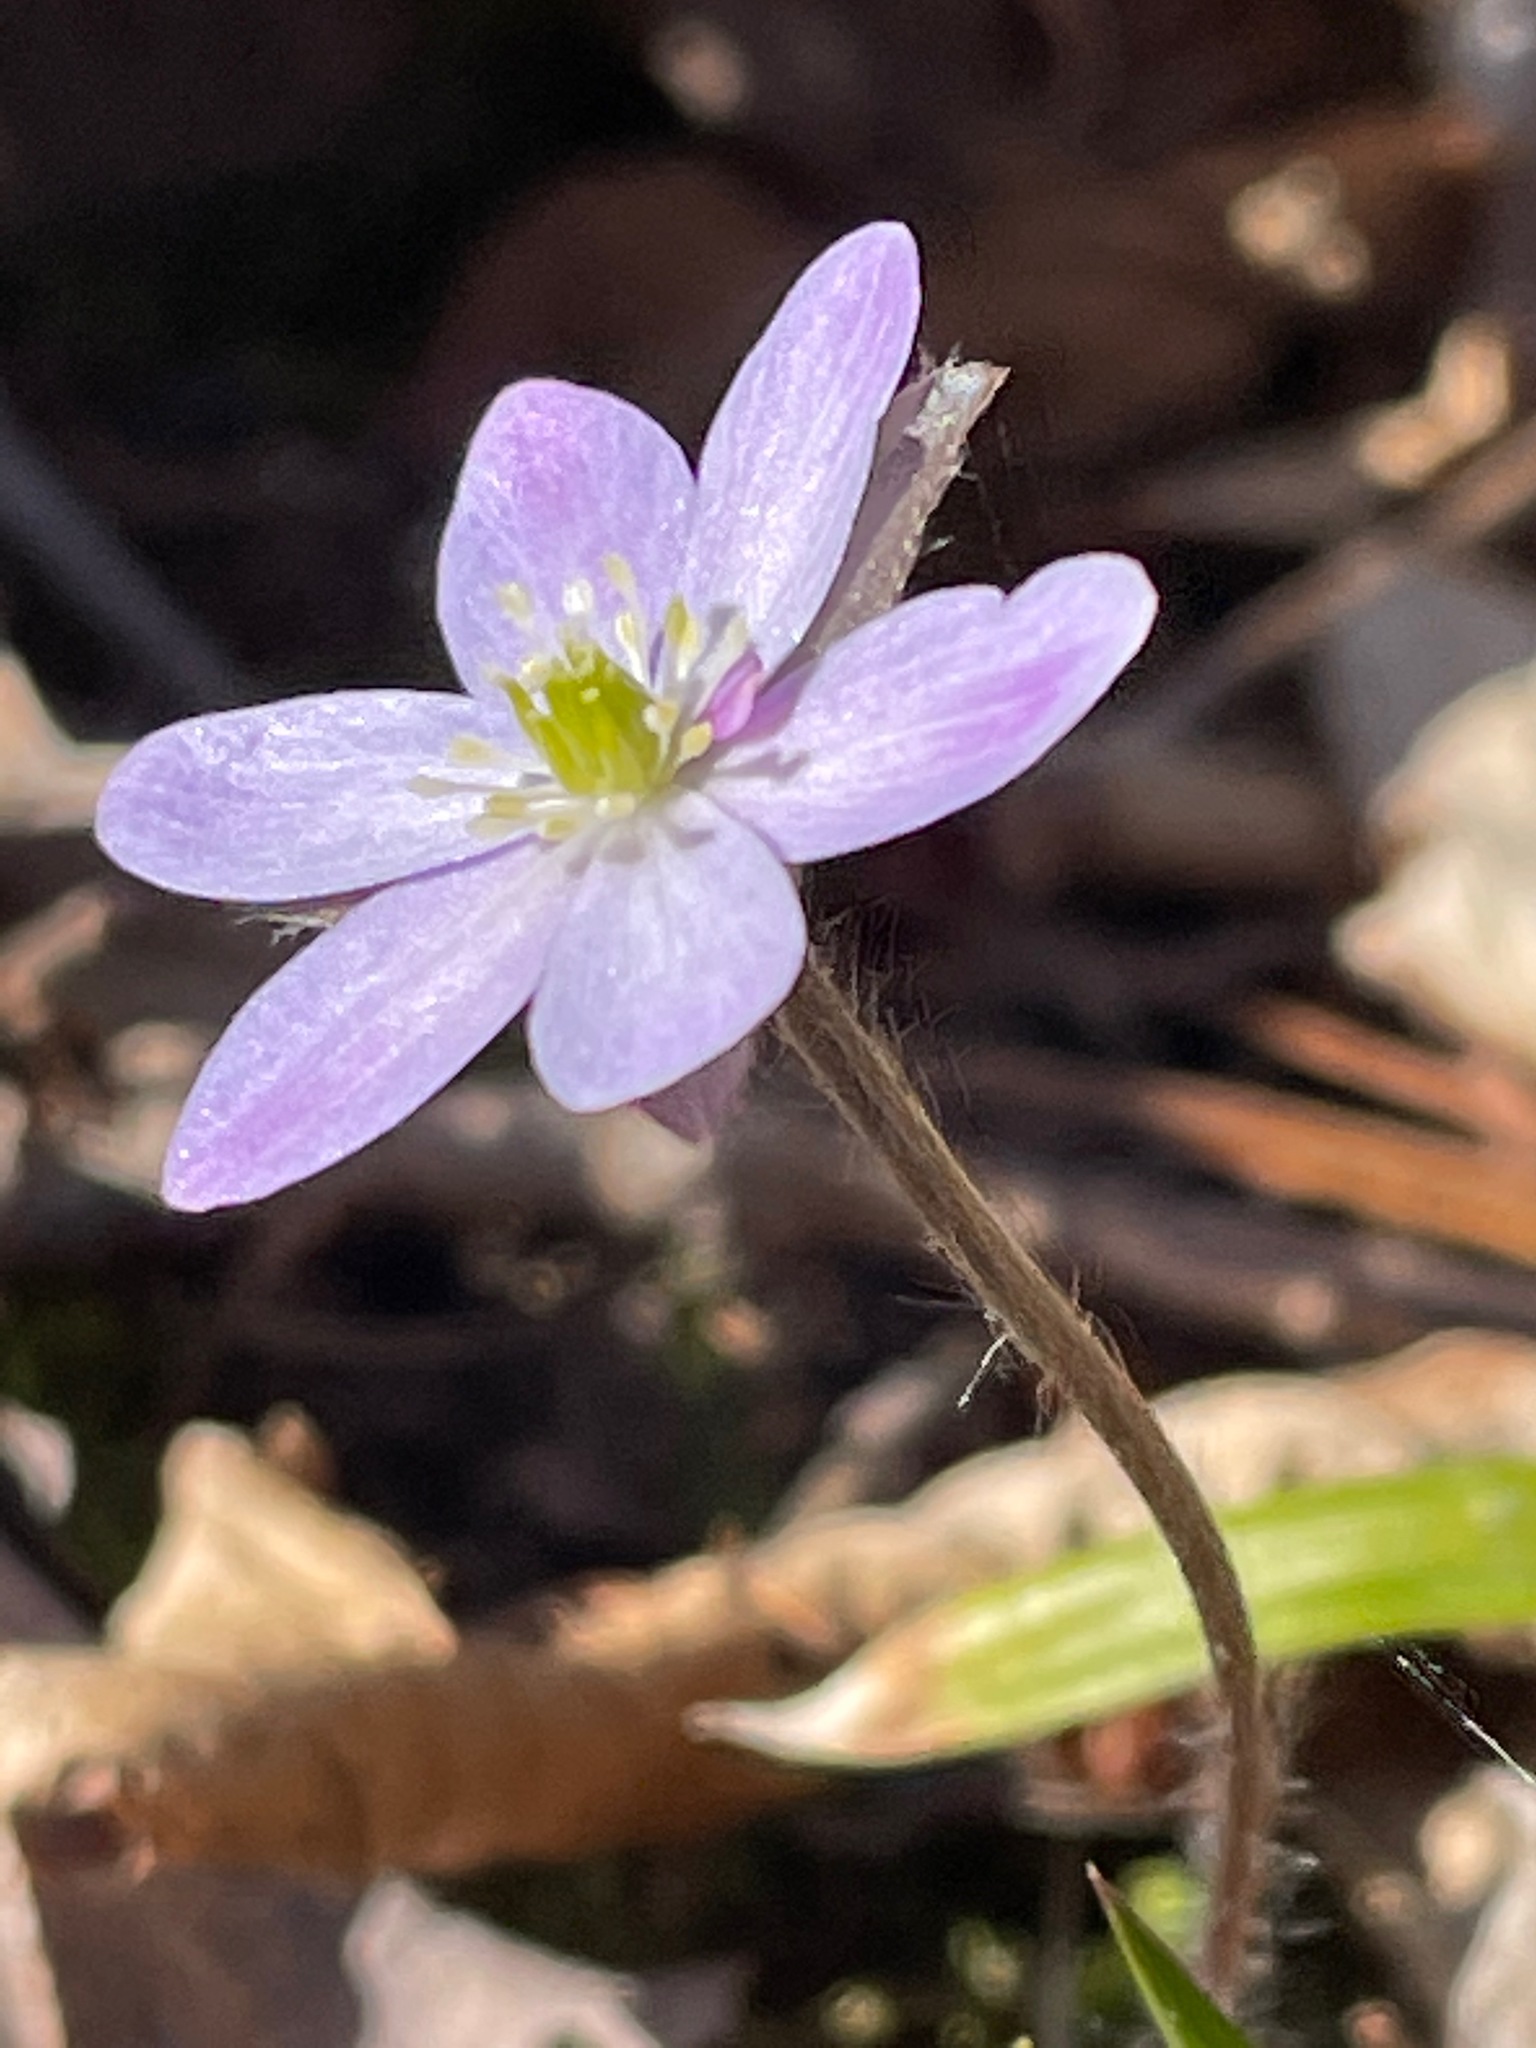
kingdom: Plantae
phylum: Tracheophyta
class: Magnoliopsida
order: Ranunculales
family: Ranunculaceae
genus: Hepatica
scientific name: Hepatica acutiloba
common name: Sharp-lobed hepatica
